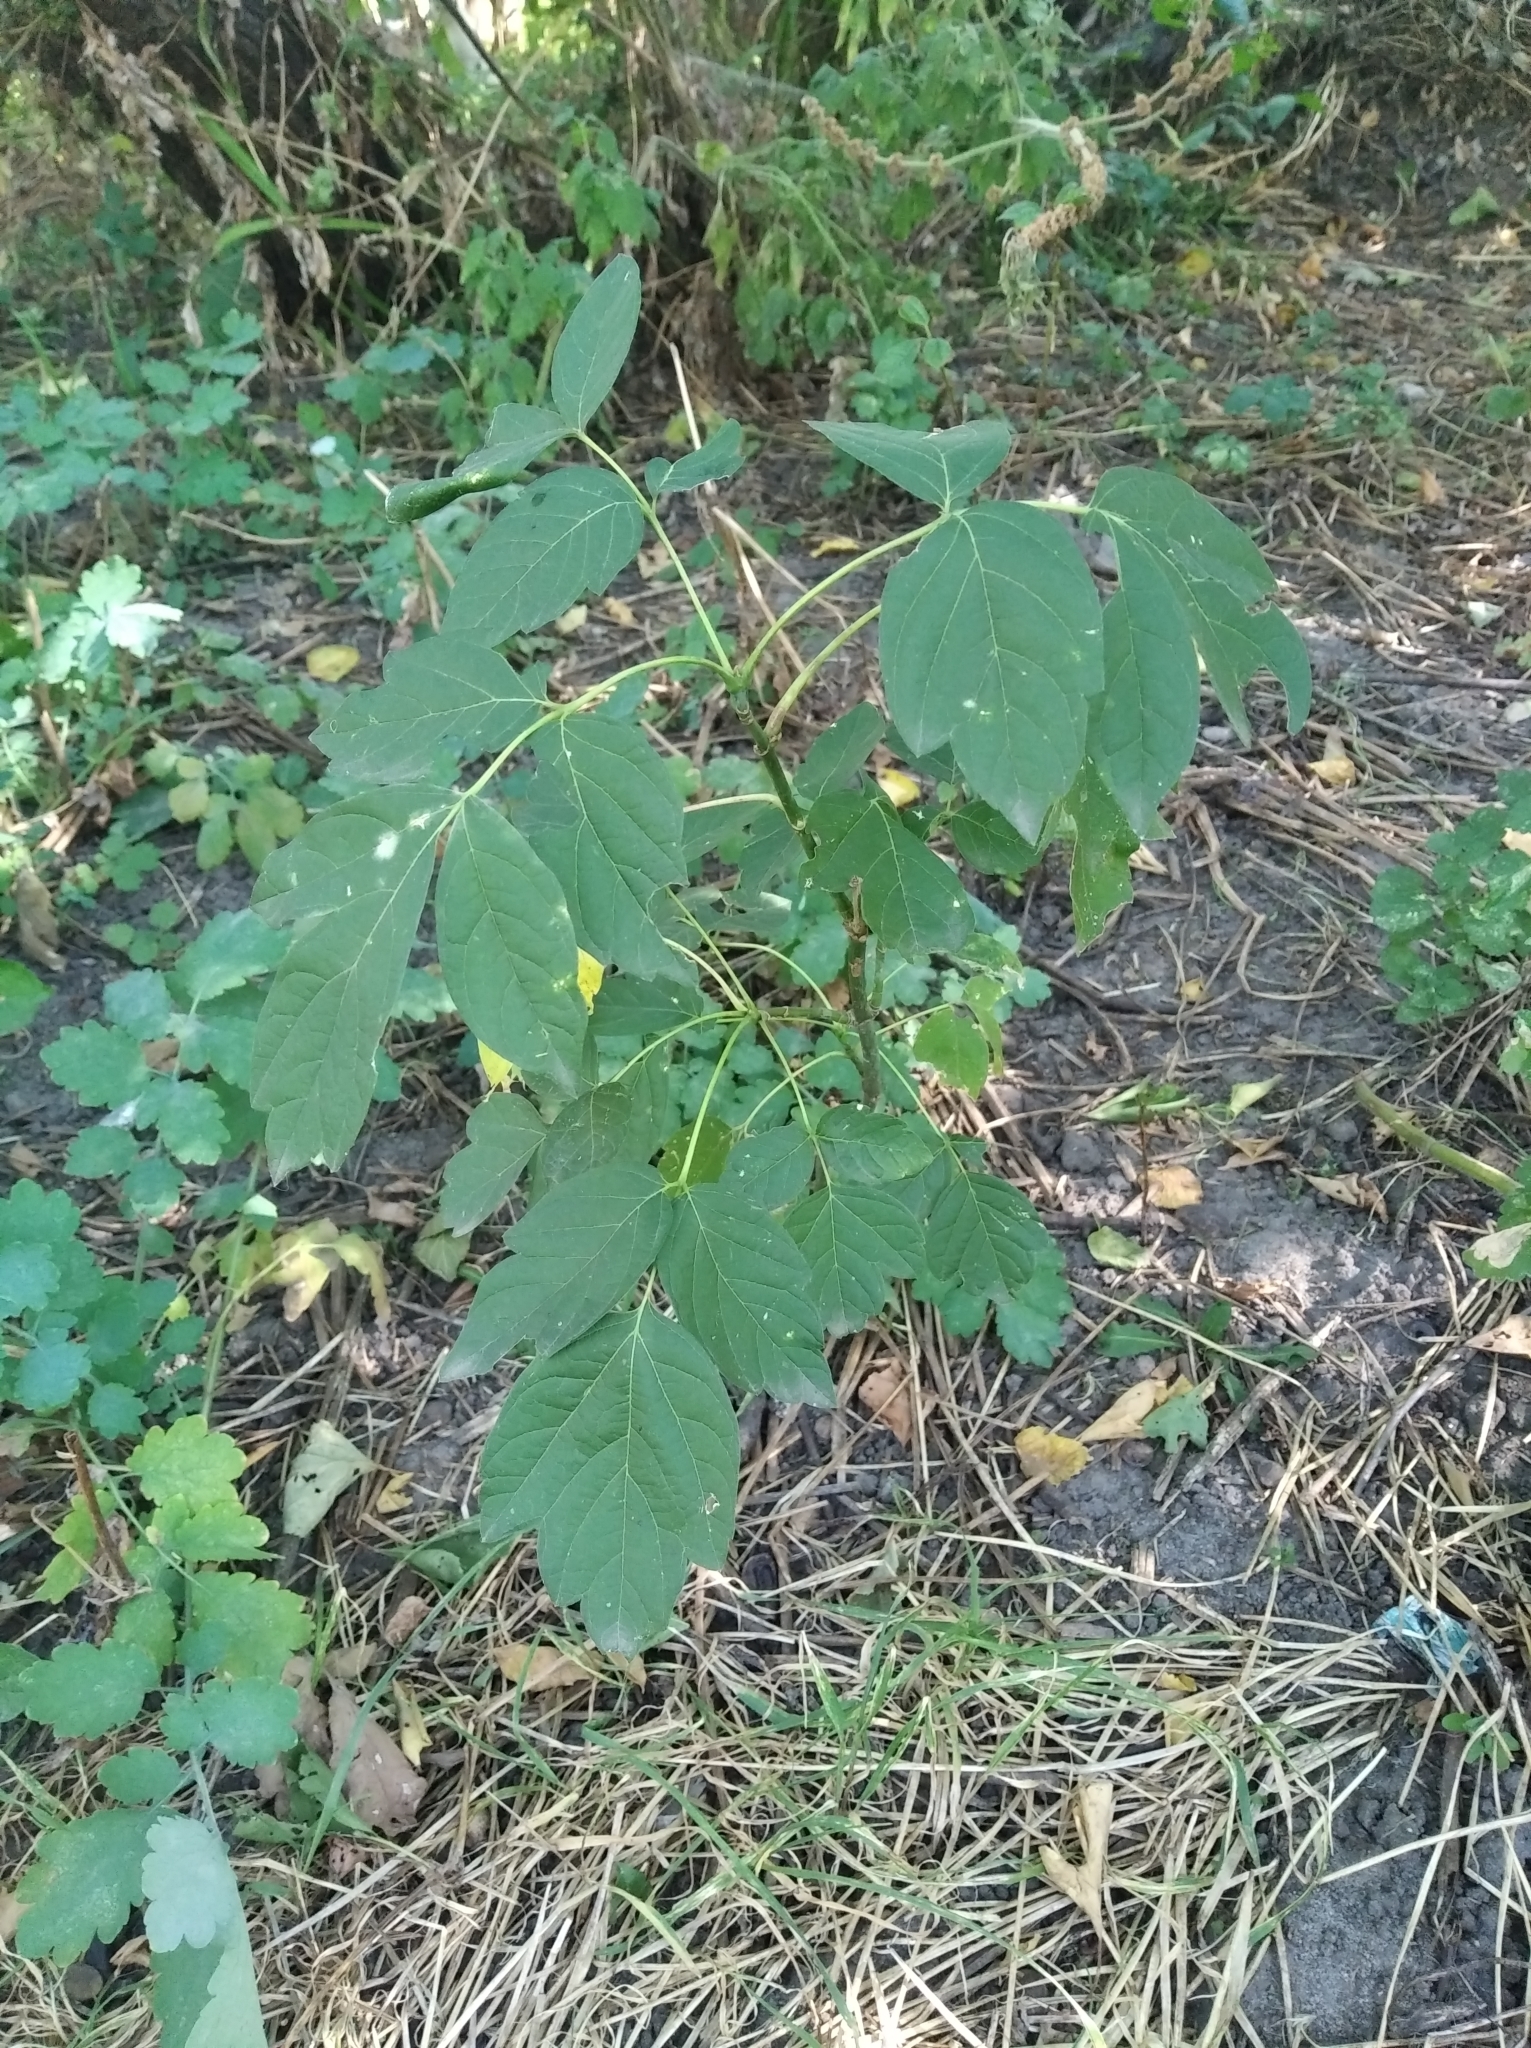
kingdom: Plantae
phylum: Tracheophyta
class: Magnoliopsida
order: Sapindales
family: Sapindaceae
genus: Acer
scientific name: Acer negundo
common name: Ashleaf maple
